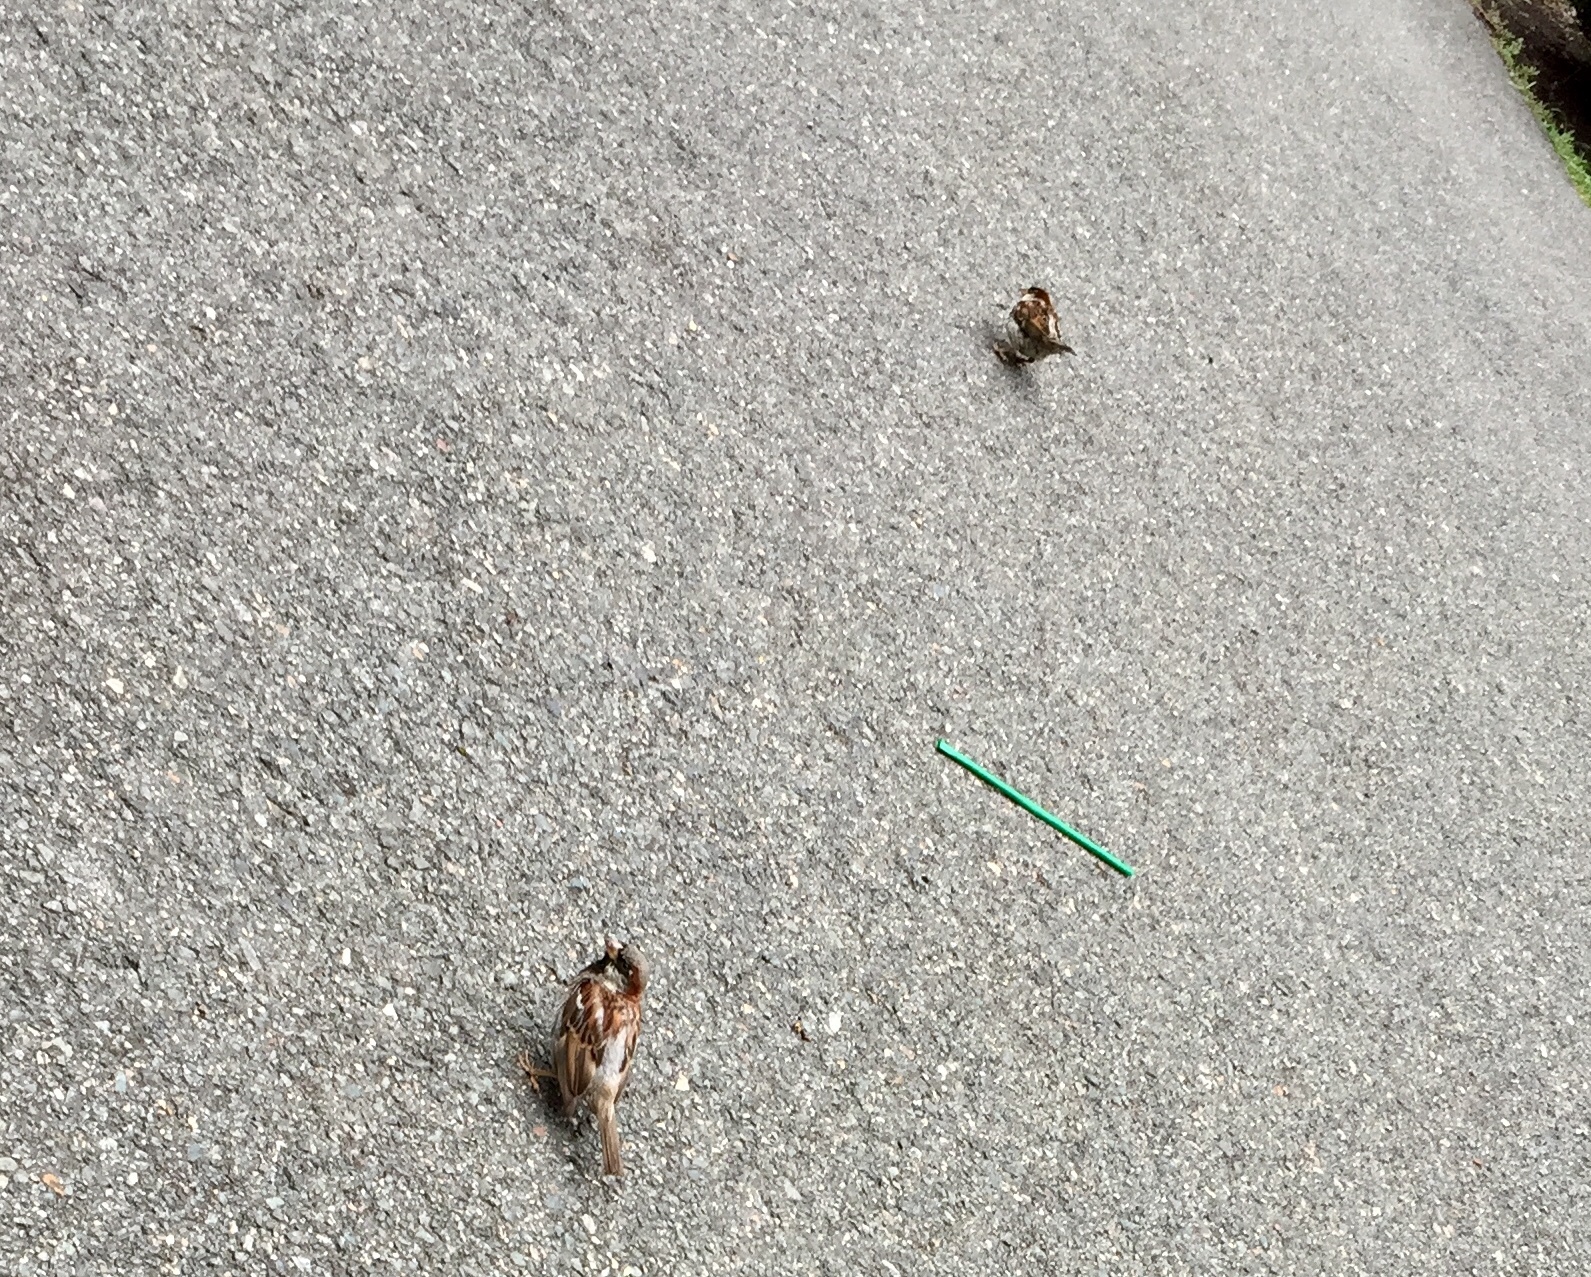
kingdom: Animalia
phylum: Chordata
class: Aves
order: Passeriformes
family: Passeridae
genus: Passer
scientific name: Passer domesticus
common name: House sparrow
